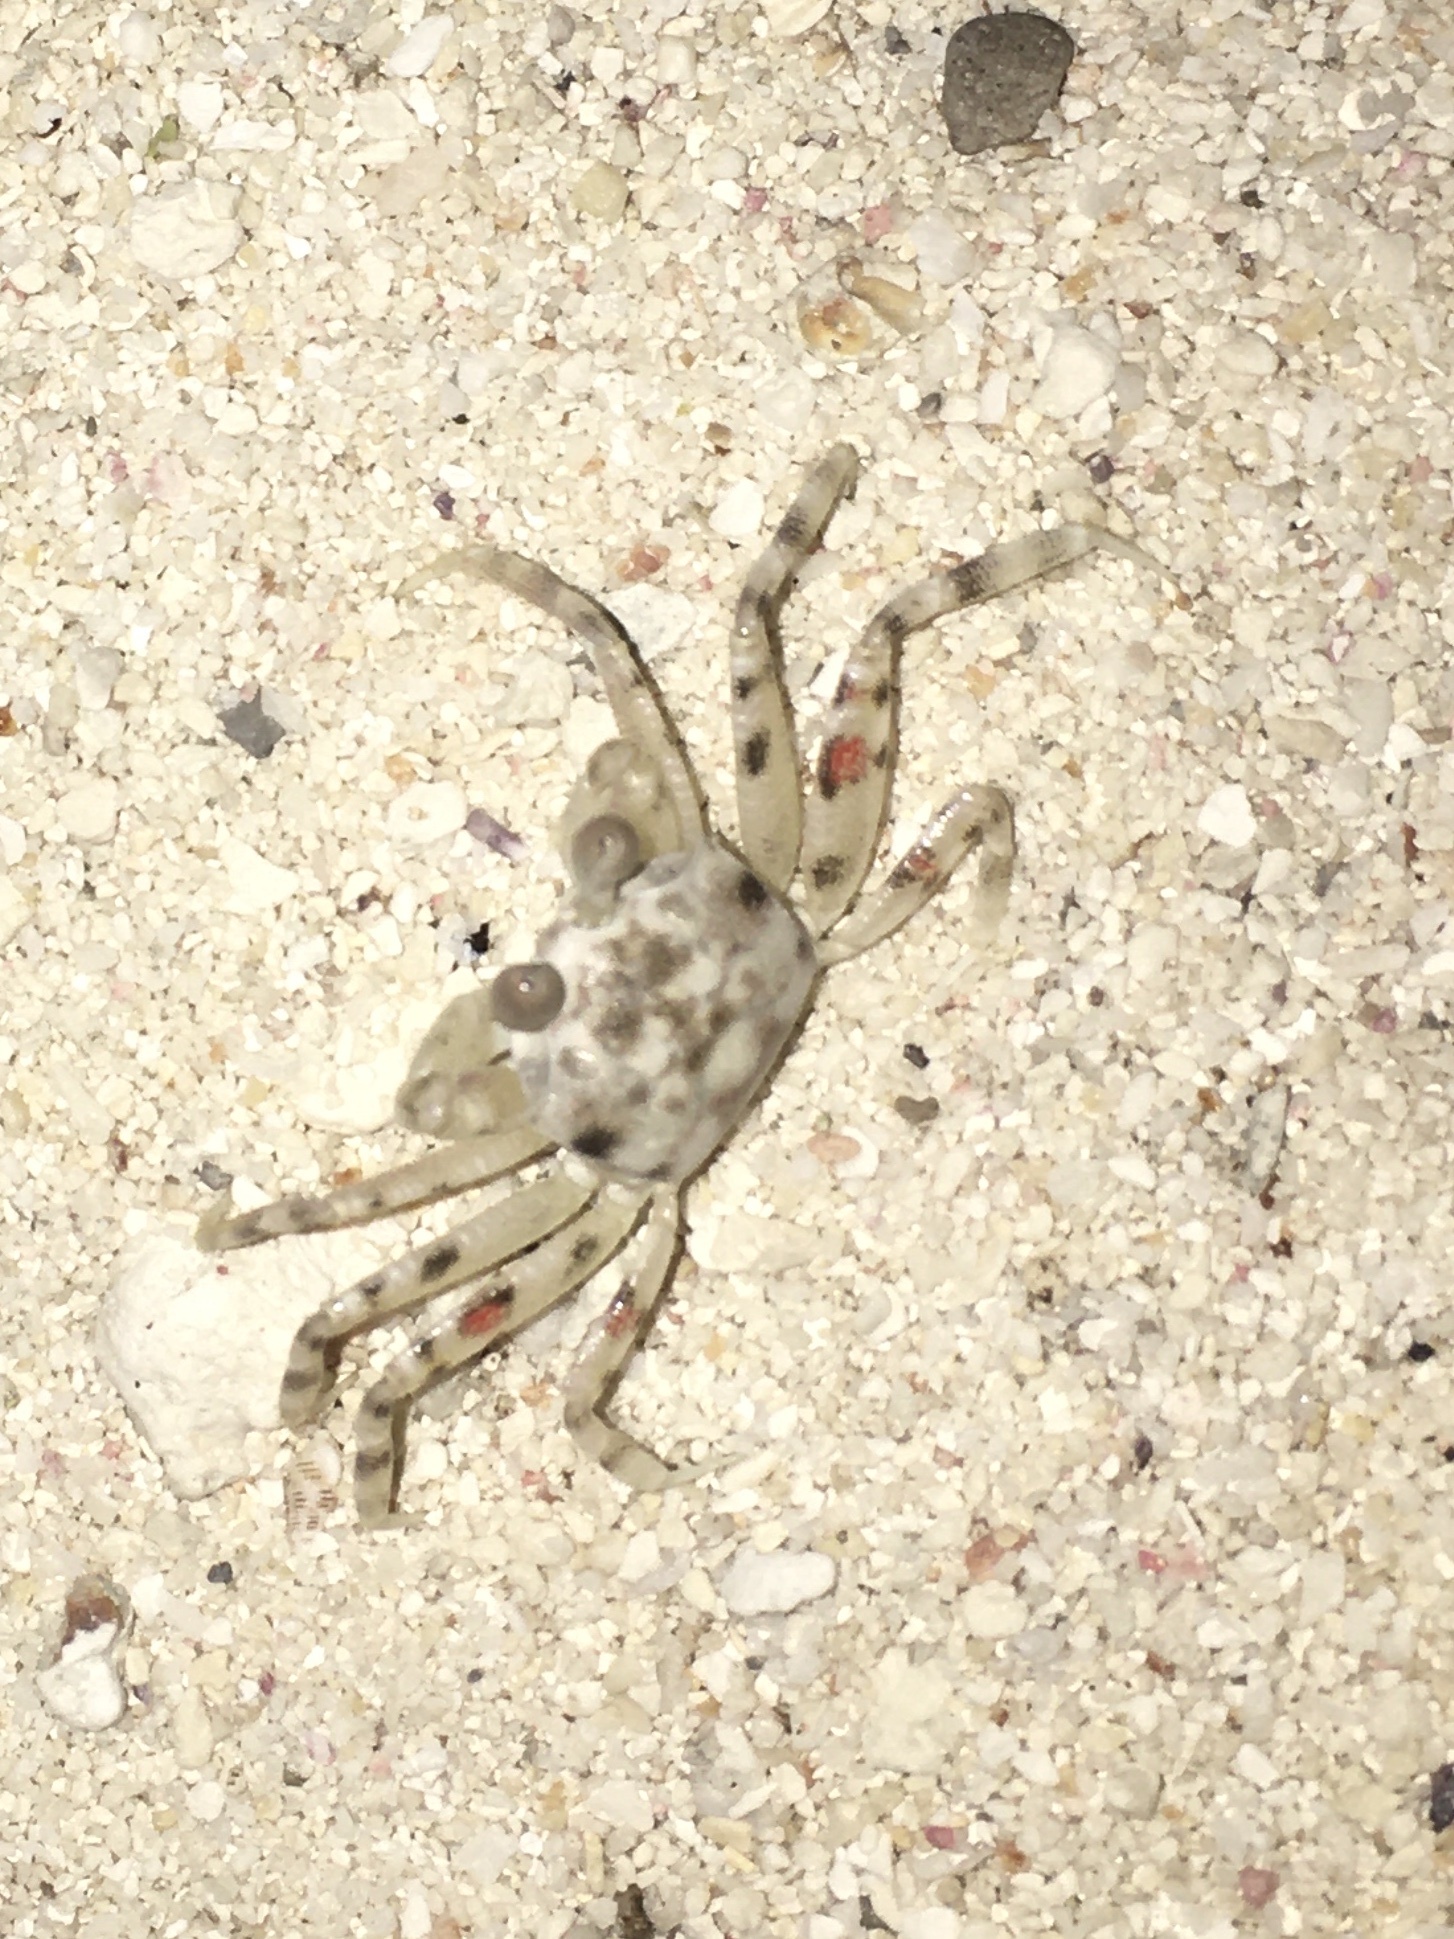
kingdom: Animalia
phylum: Arthropoda
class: Malacostraca
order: Decapoda
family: Ocypodidae
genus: Ocypode
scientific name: Ocypode pallidula
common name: Pallid ghost crab
